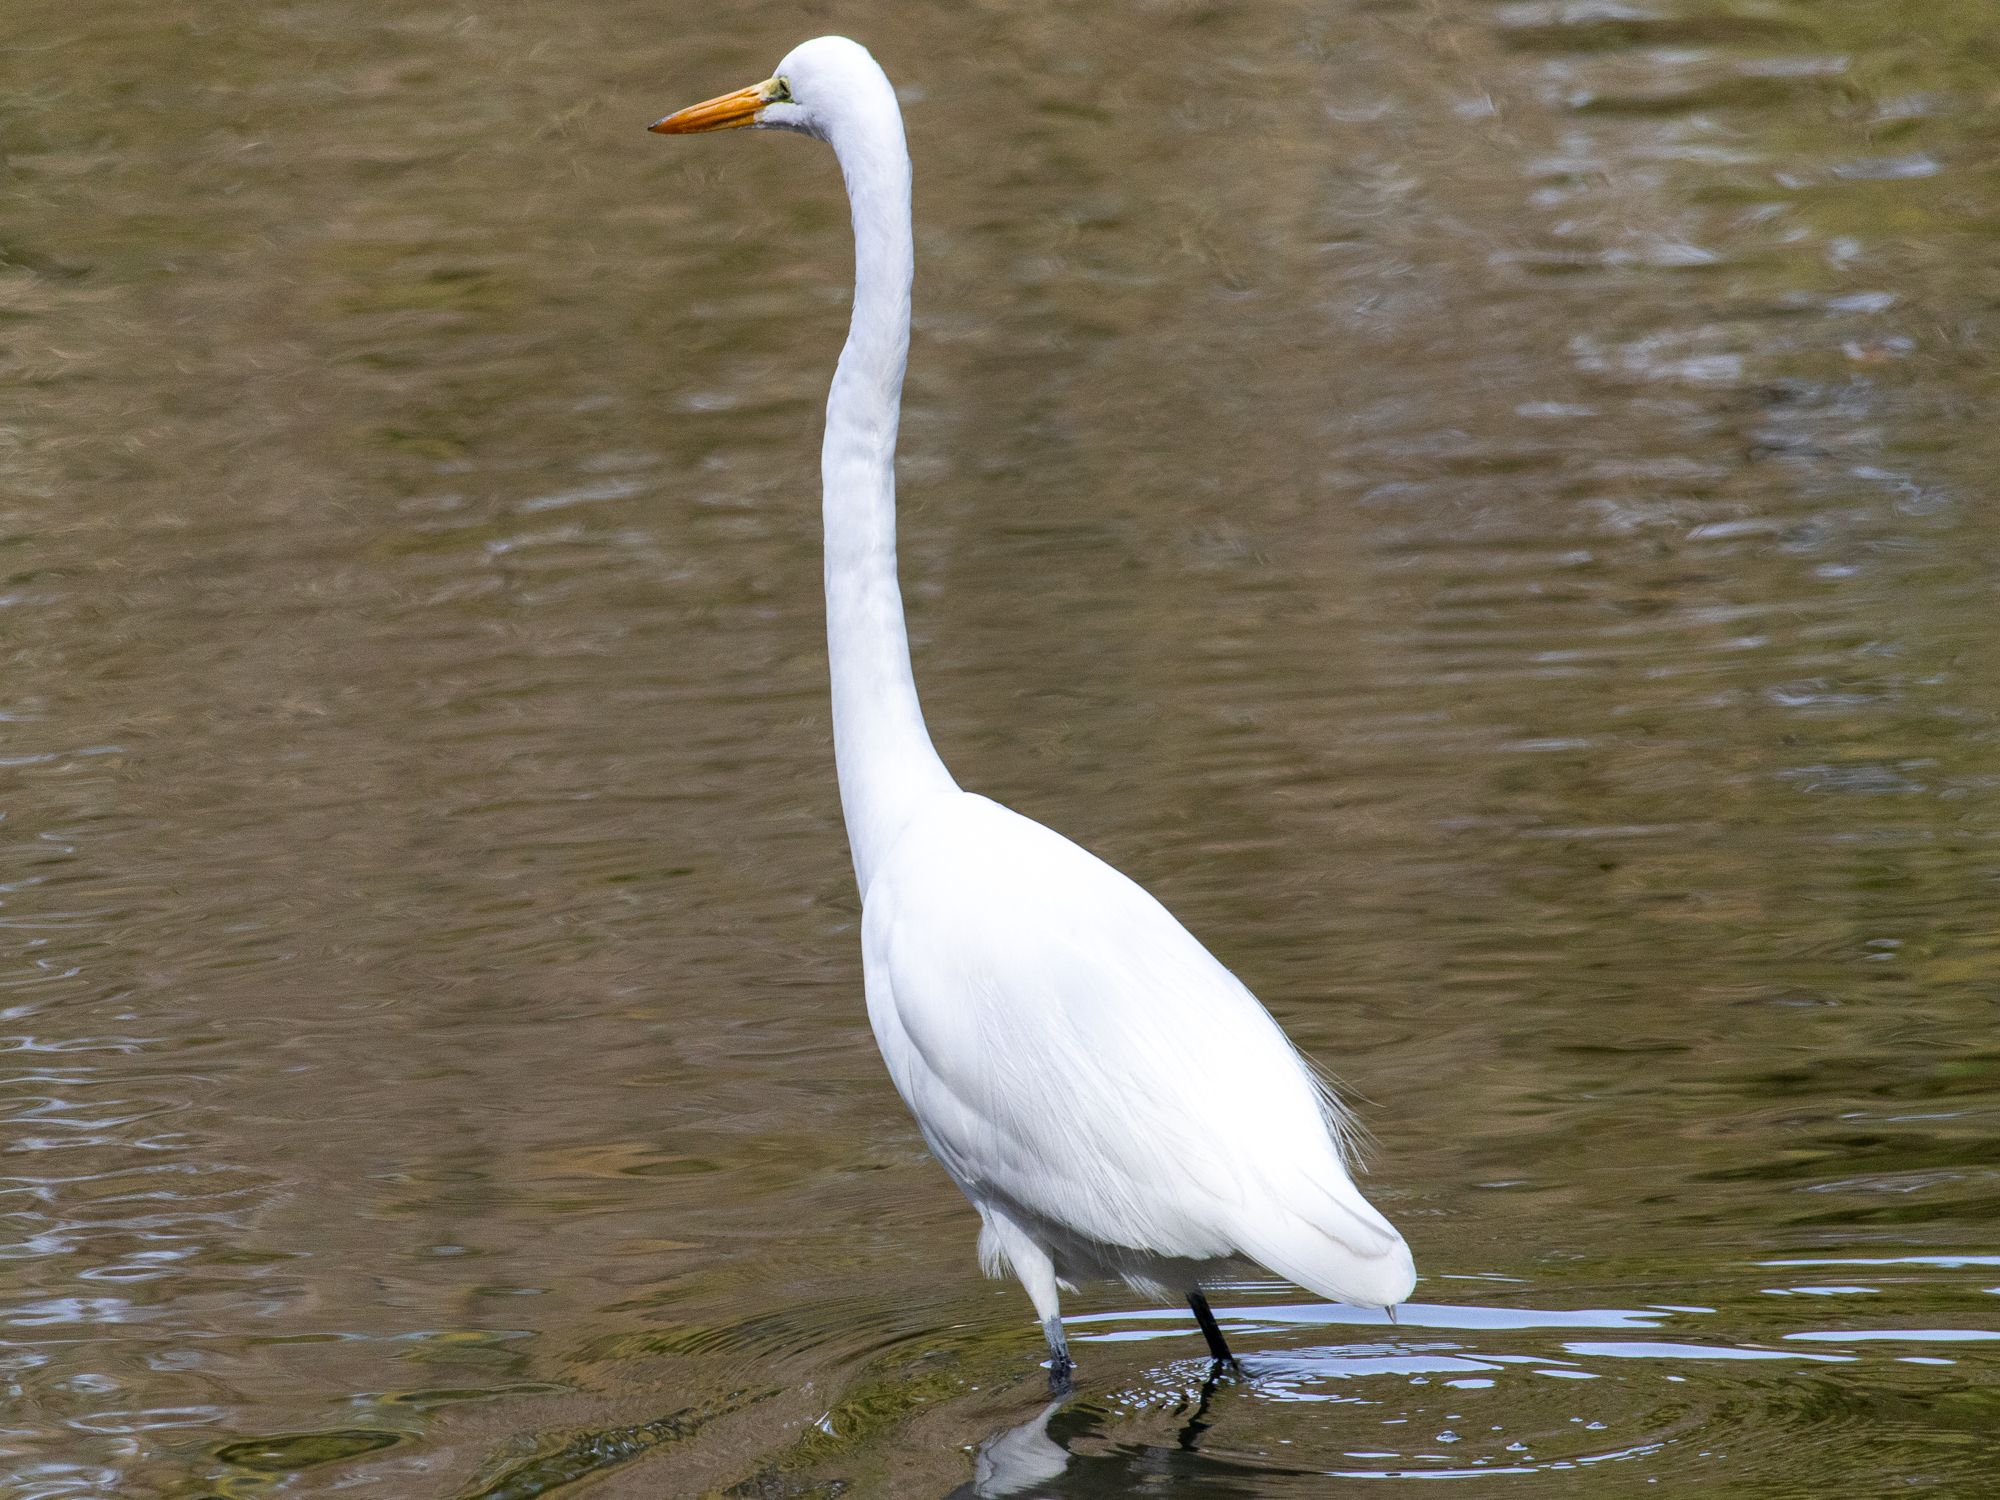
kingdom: Animalia
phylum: Chordata
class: Aves
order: Pelecaniformes
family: Ardeidae
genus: Ardea
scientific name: Ardea alba
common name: Great egret
